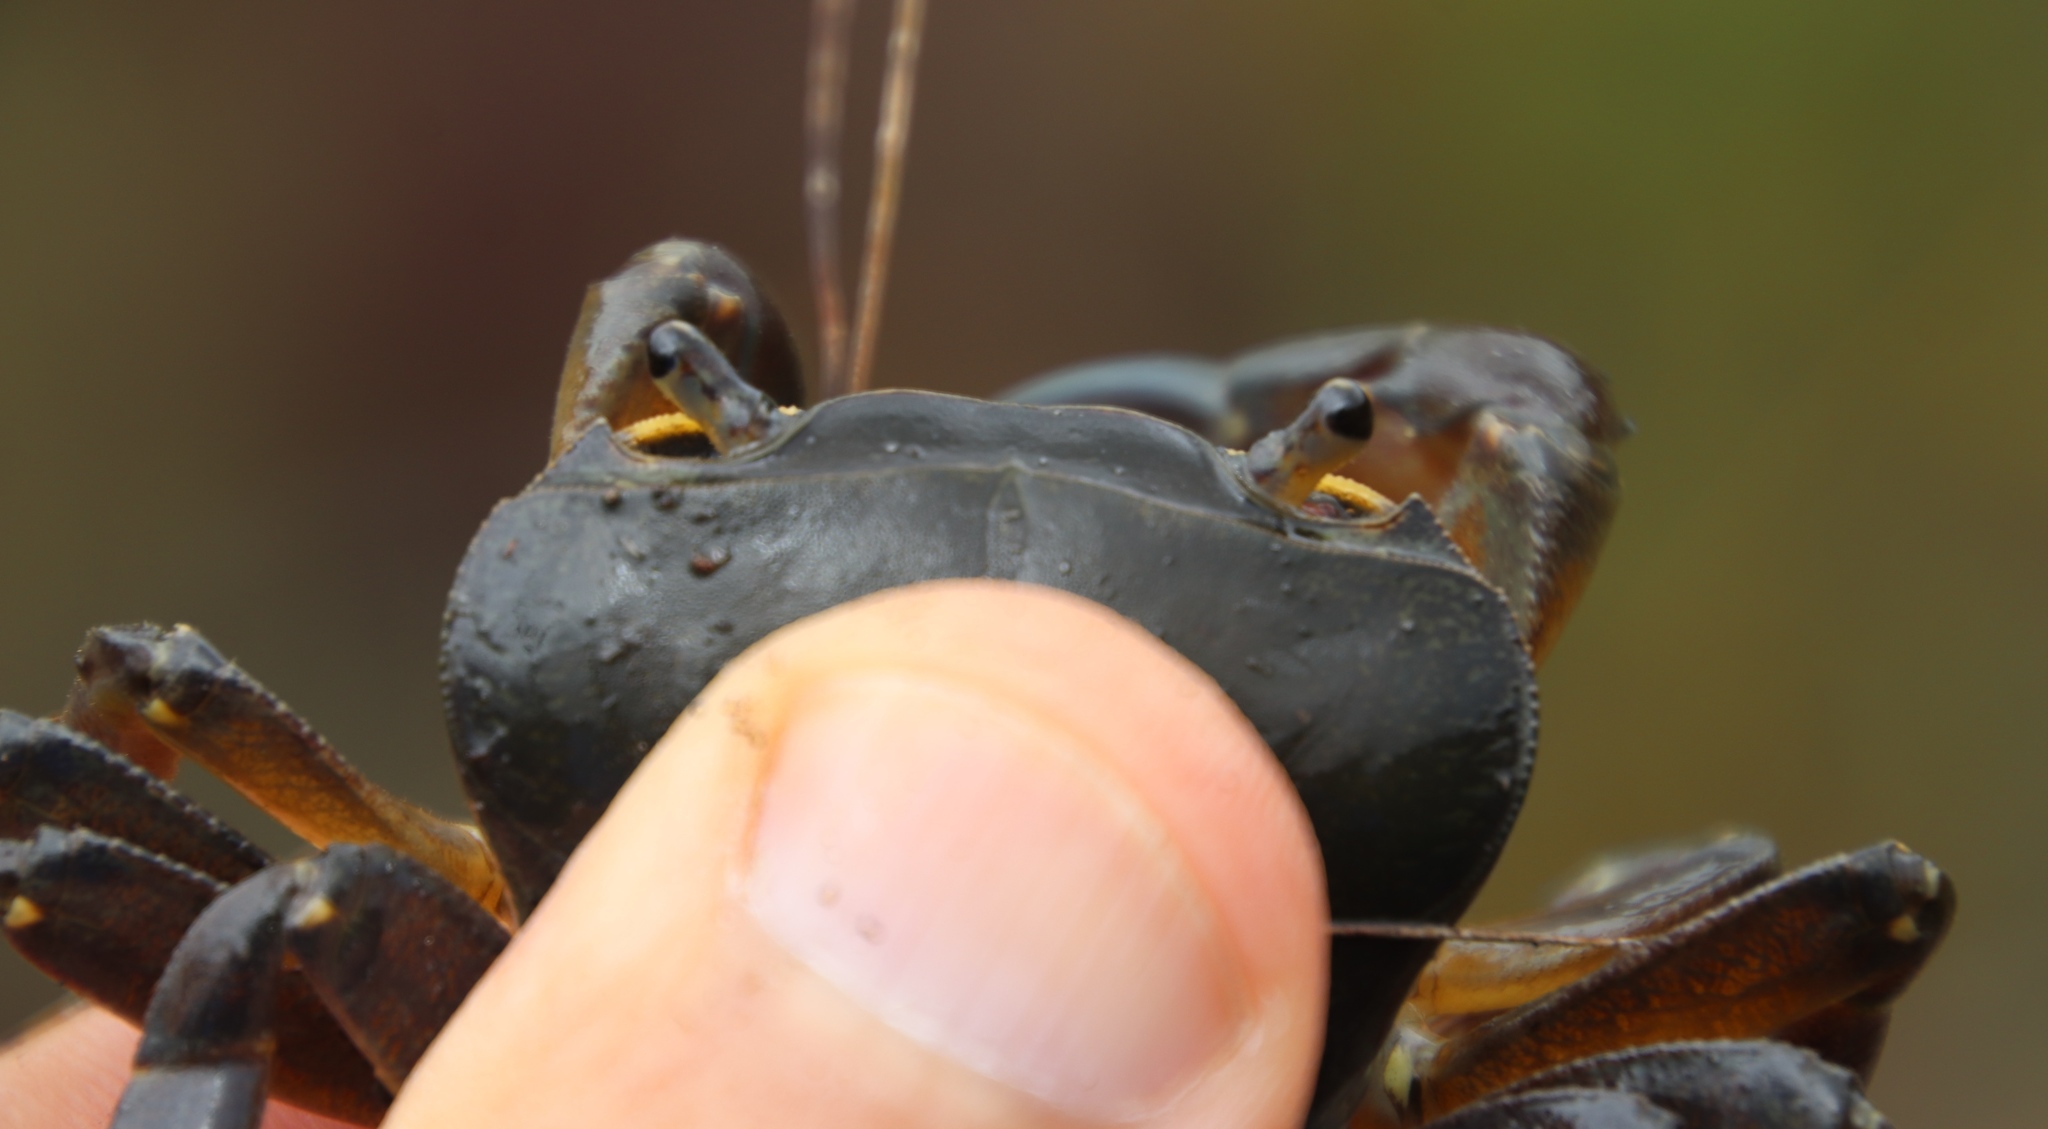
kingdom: Animalia
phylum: Arthropoda
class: Malacostraca
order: Decapoda
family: Potamonautidae
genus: Potamonautes
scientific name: Potamonautes perlatus
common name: Cape river crab
